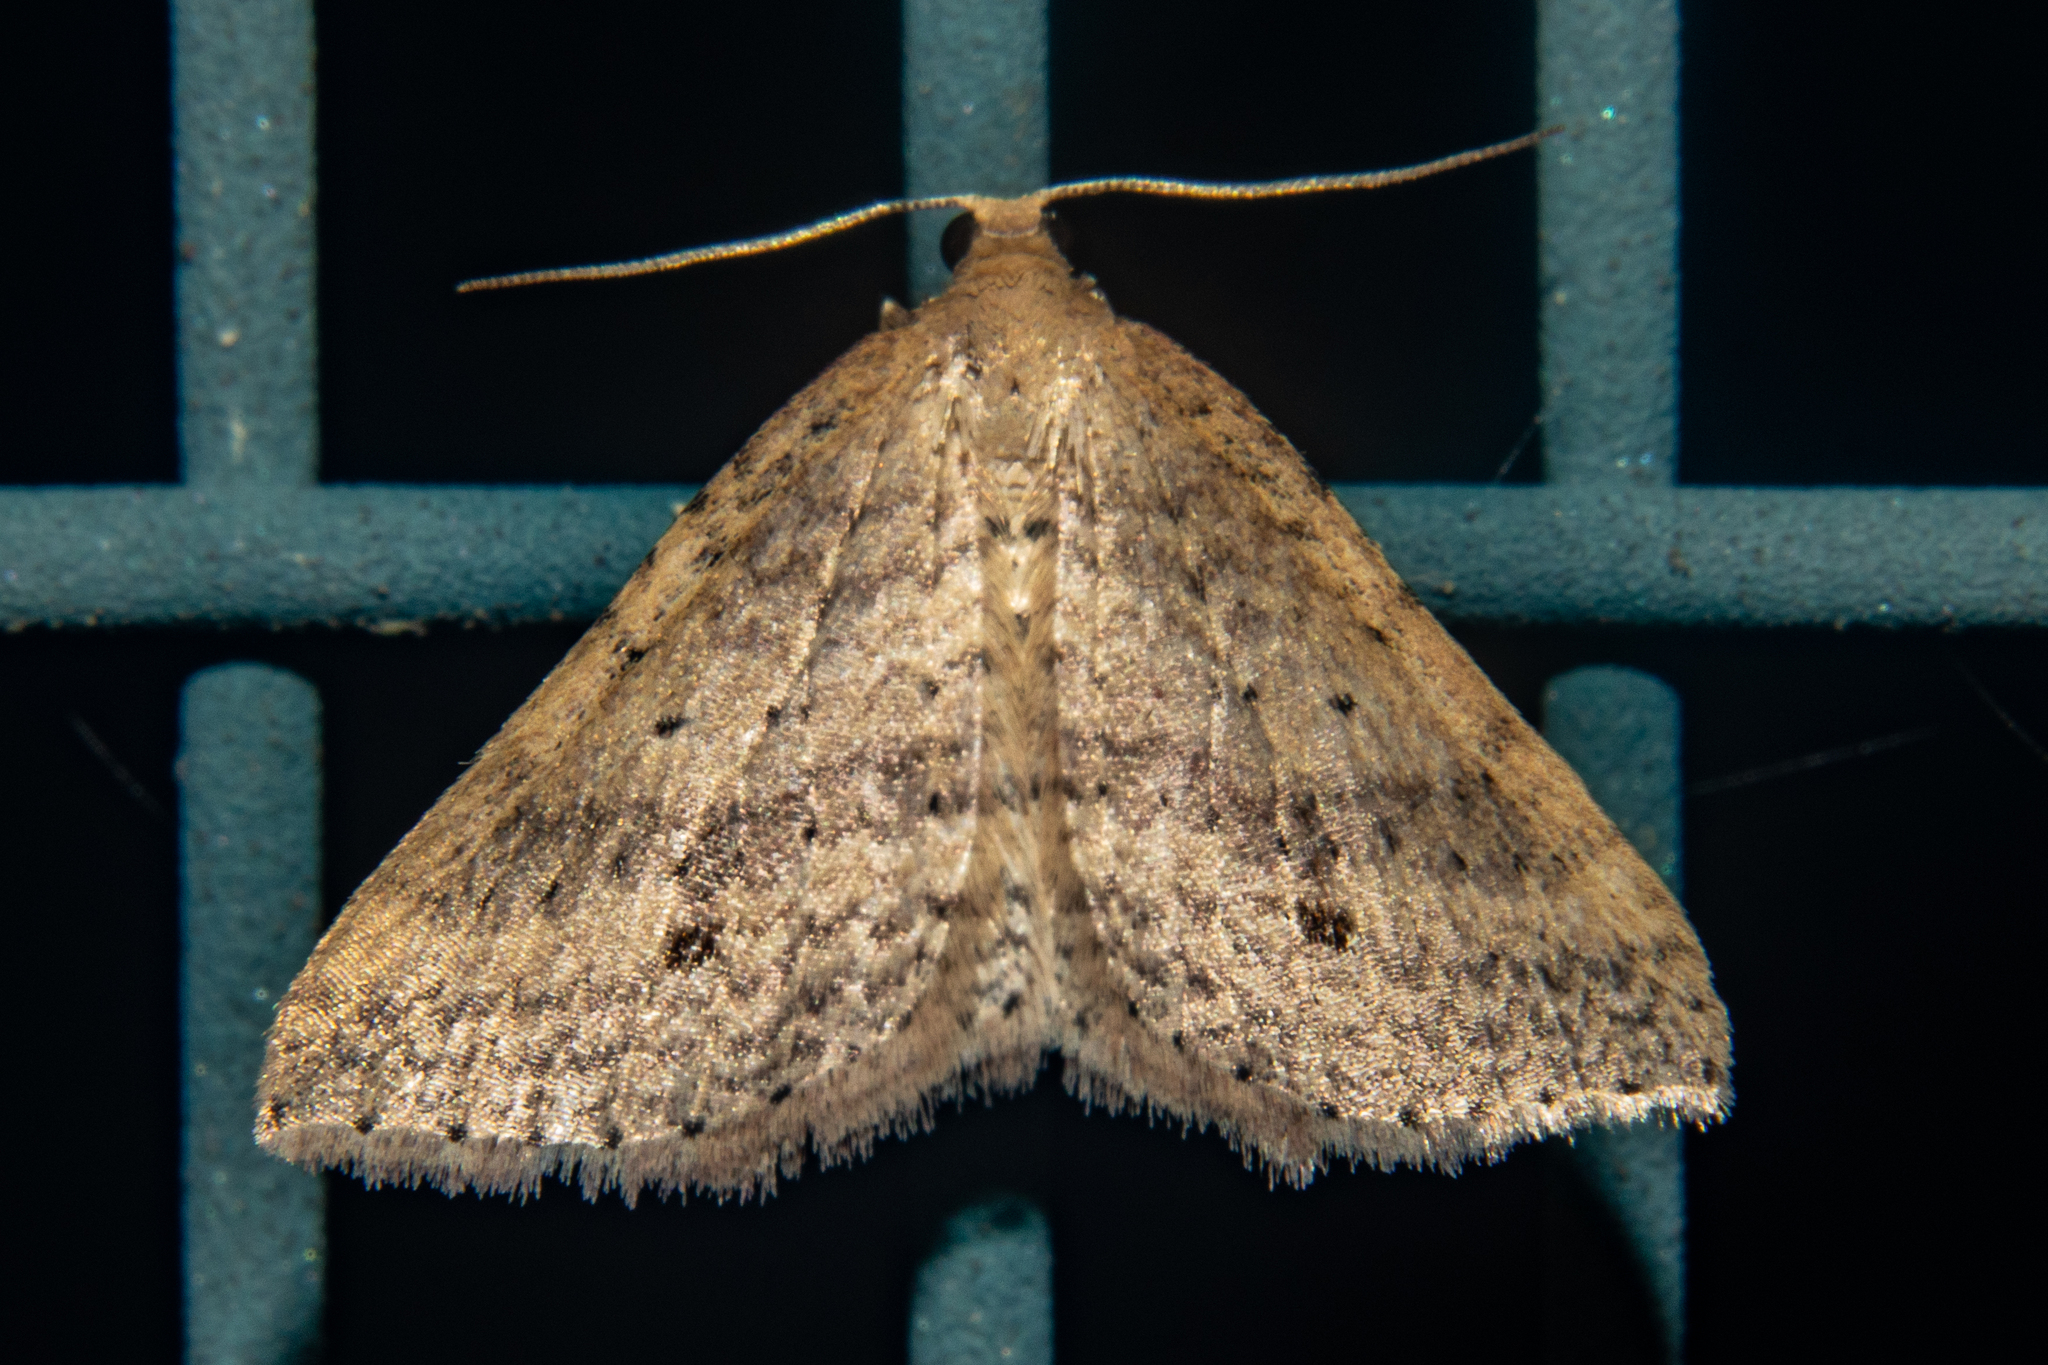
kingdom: Animalia
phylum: Arthropoda
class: Insecta
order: Lepidoptera
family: Geometridae
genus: Epicyme
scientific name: Epicyme rubropunctaria
